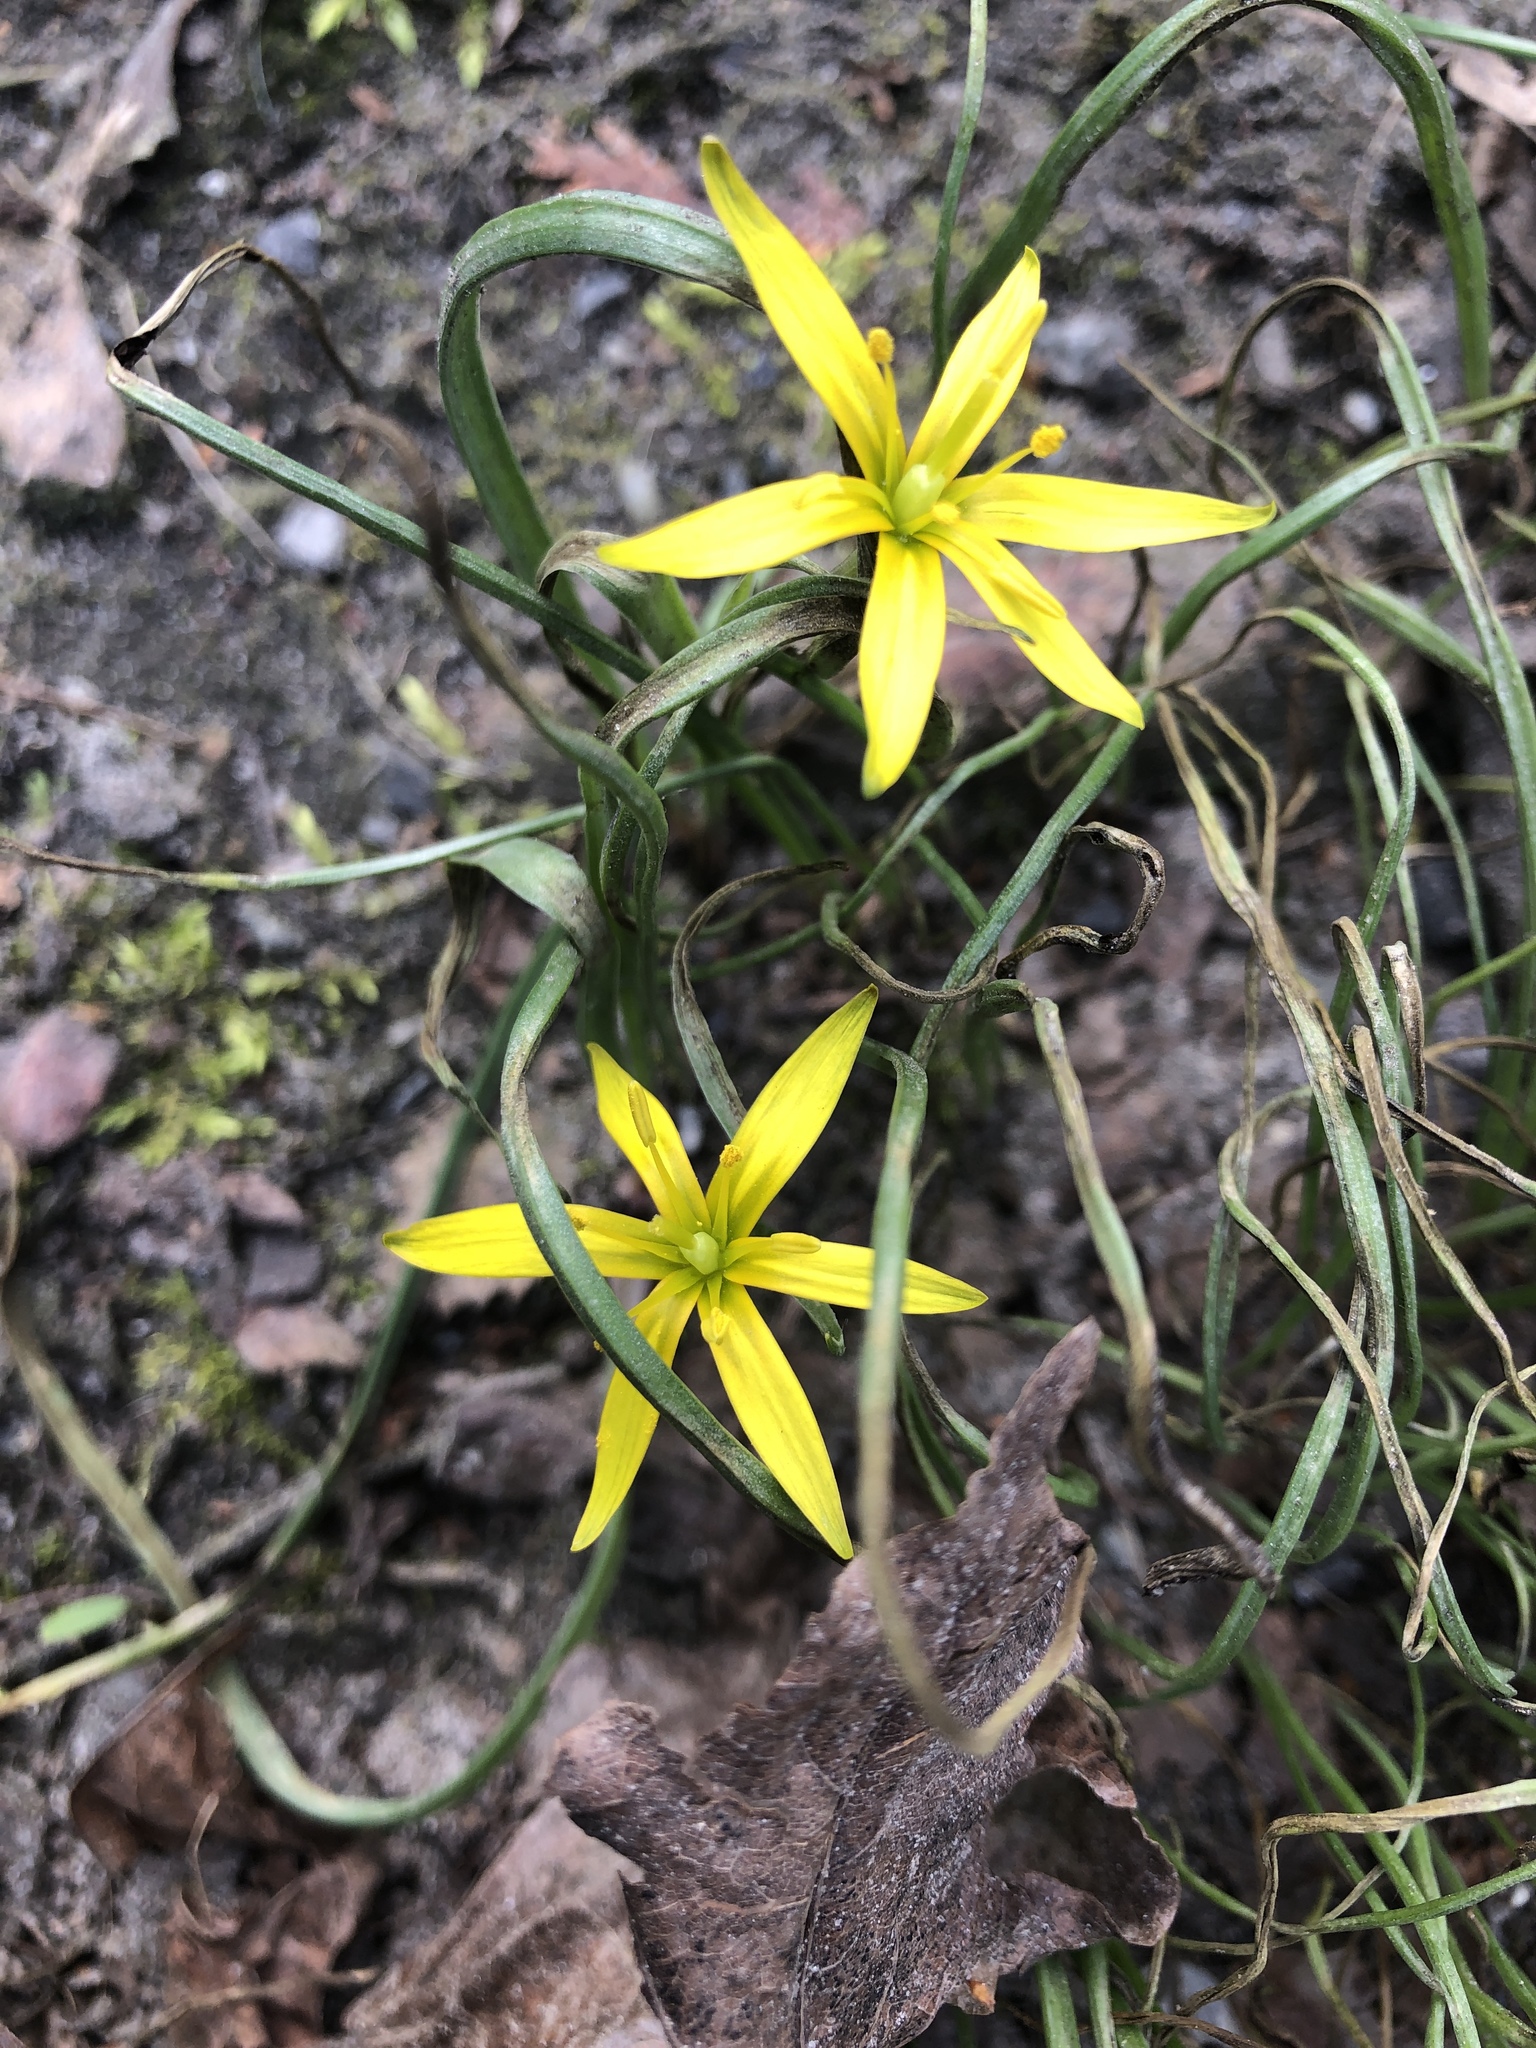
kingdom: Plantae
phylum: Tracheophyta
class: Liliopsida
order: Liliales
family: Liliaceae
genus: Gagea
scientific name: Gagea lutea
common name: Yellow star-of-bethlehem
